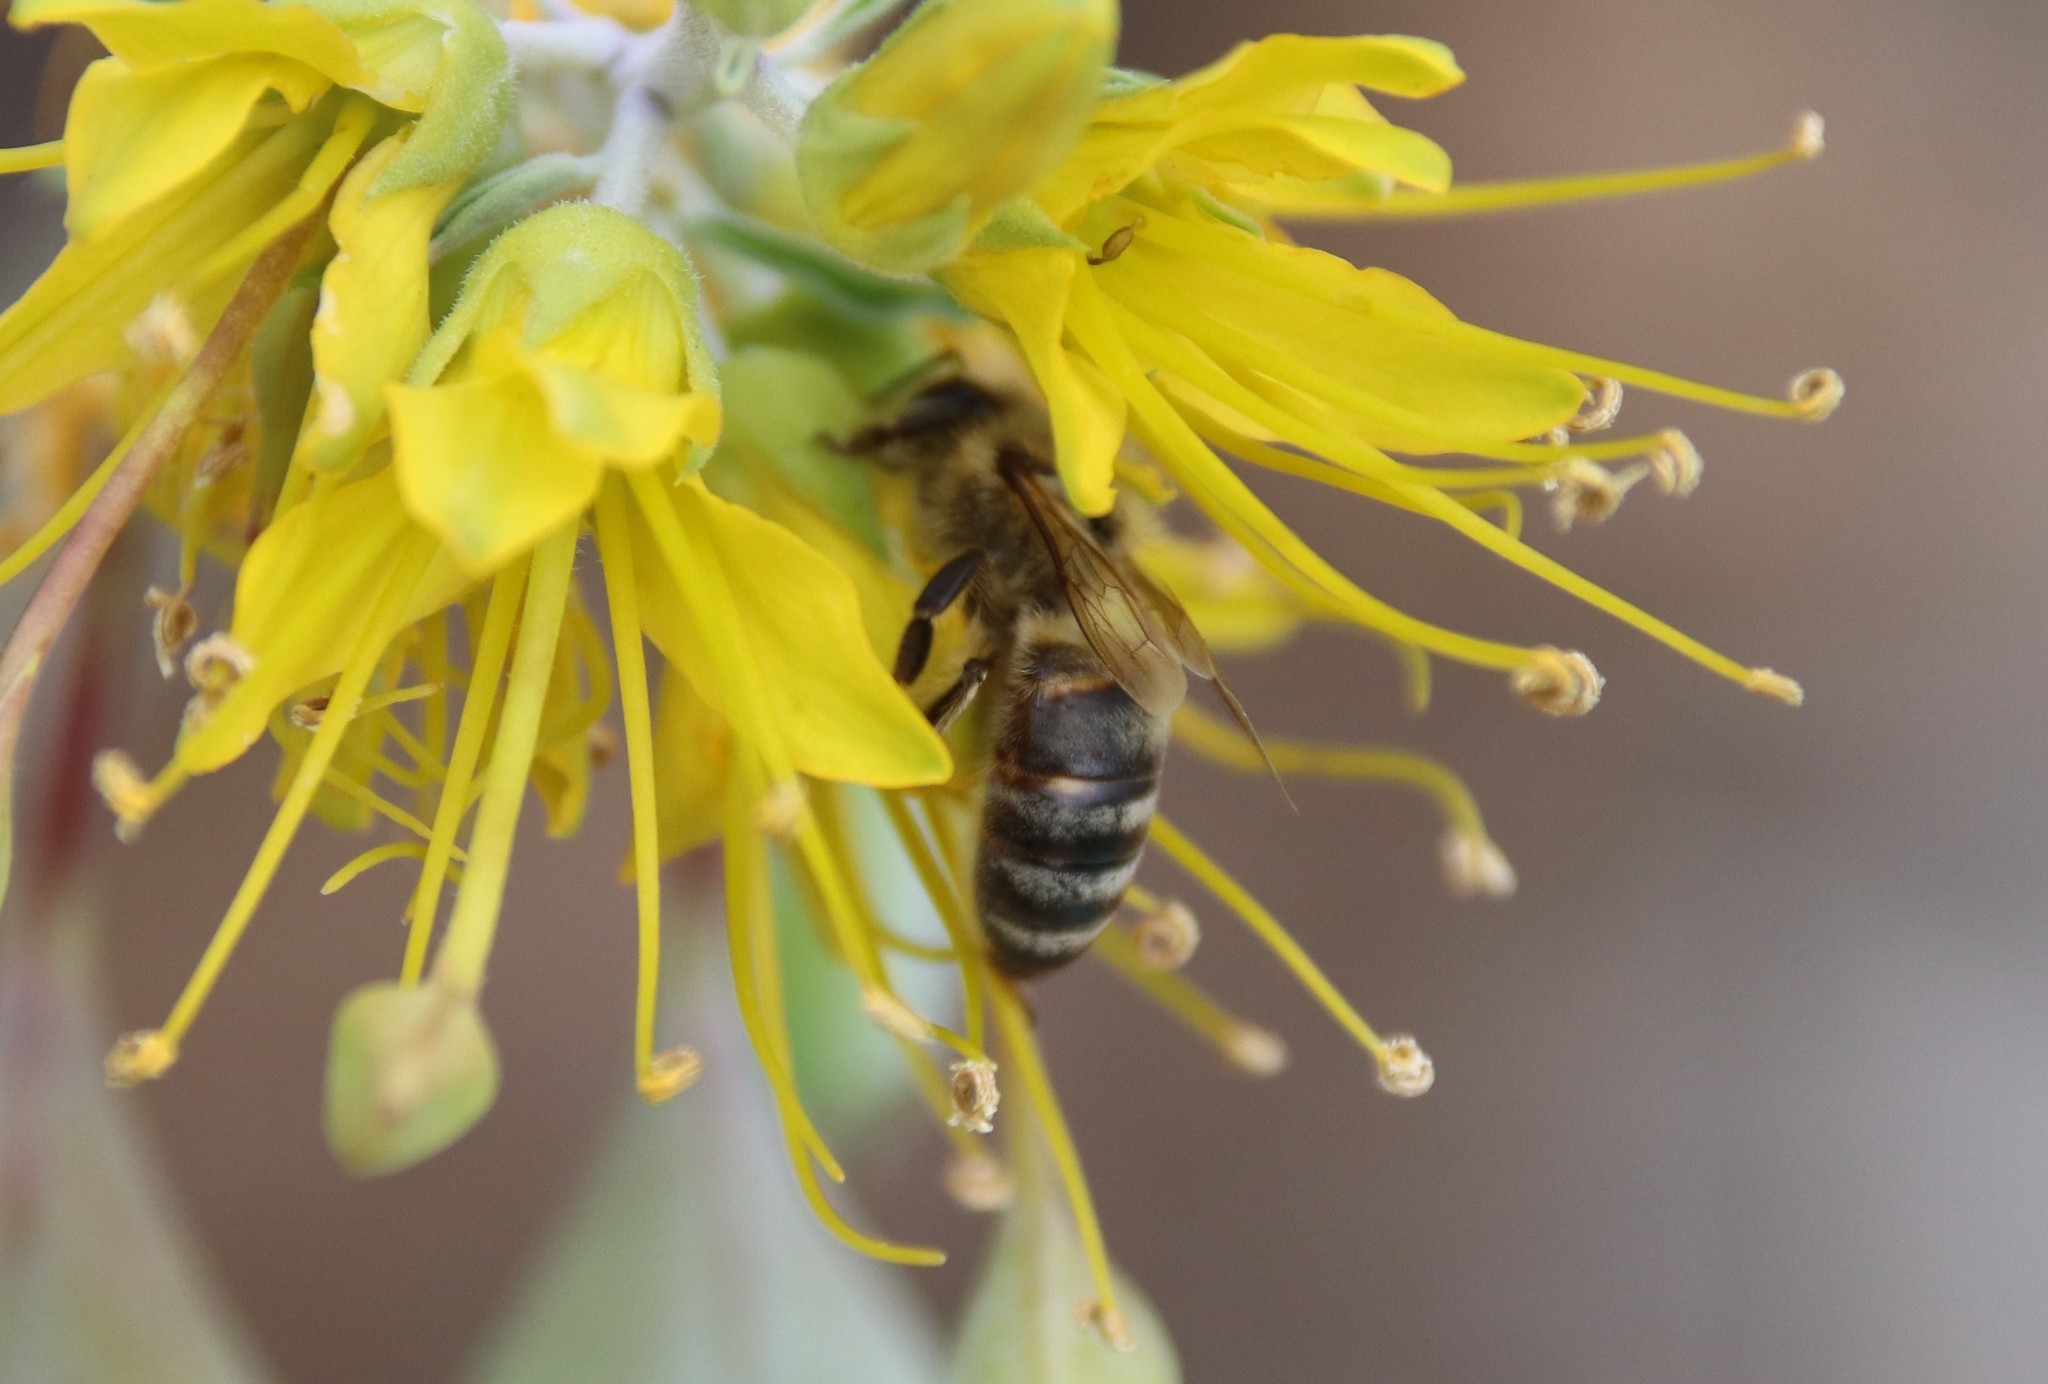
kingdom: Animalia
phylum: Arthropoda
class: Insecta
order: Hymenoptera
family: Apidae
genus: Apis
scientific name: Apis mellifera
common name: Honey bee
